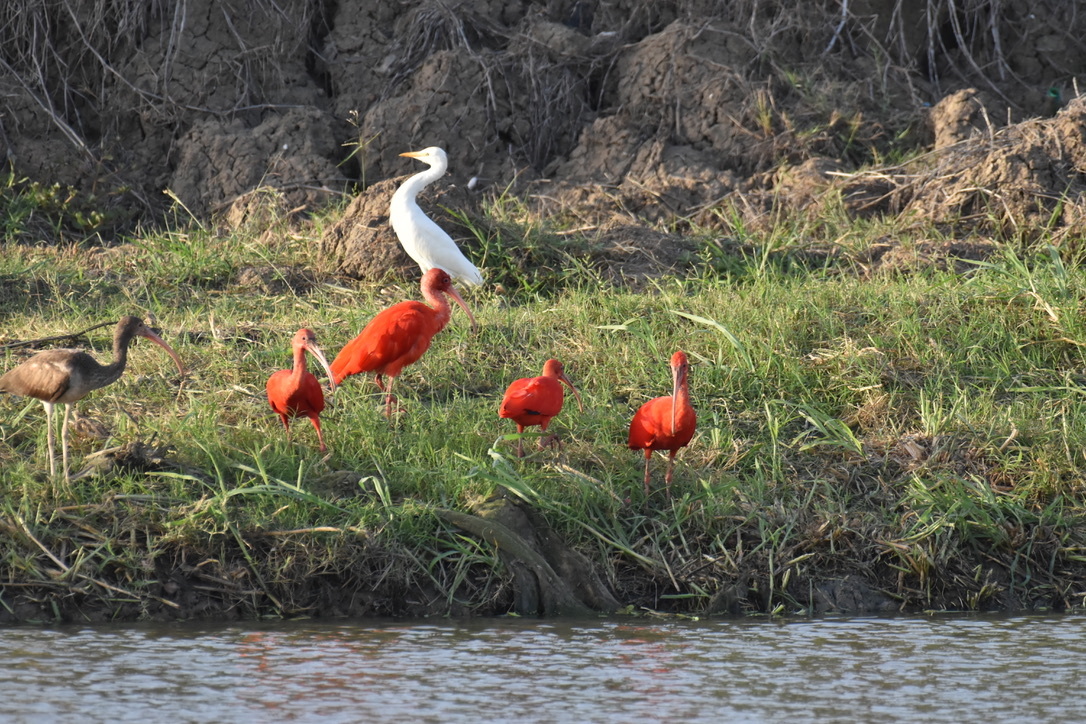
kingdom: Animalia
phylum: Chordata
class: Aves
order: Pelecaniformes
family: Threskiornithidae
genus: Eudocimus
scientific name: Eudocimus ruber
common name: Scarlet ibis
